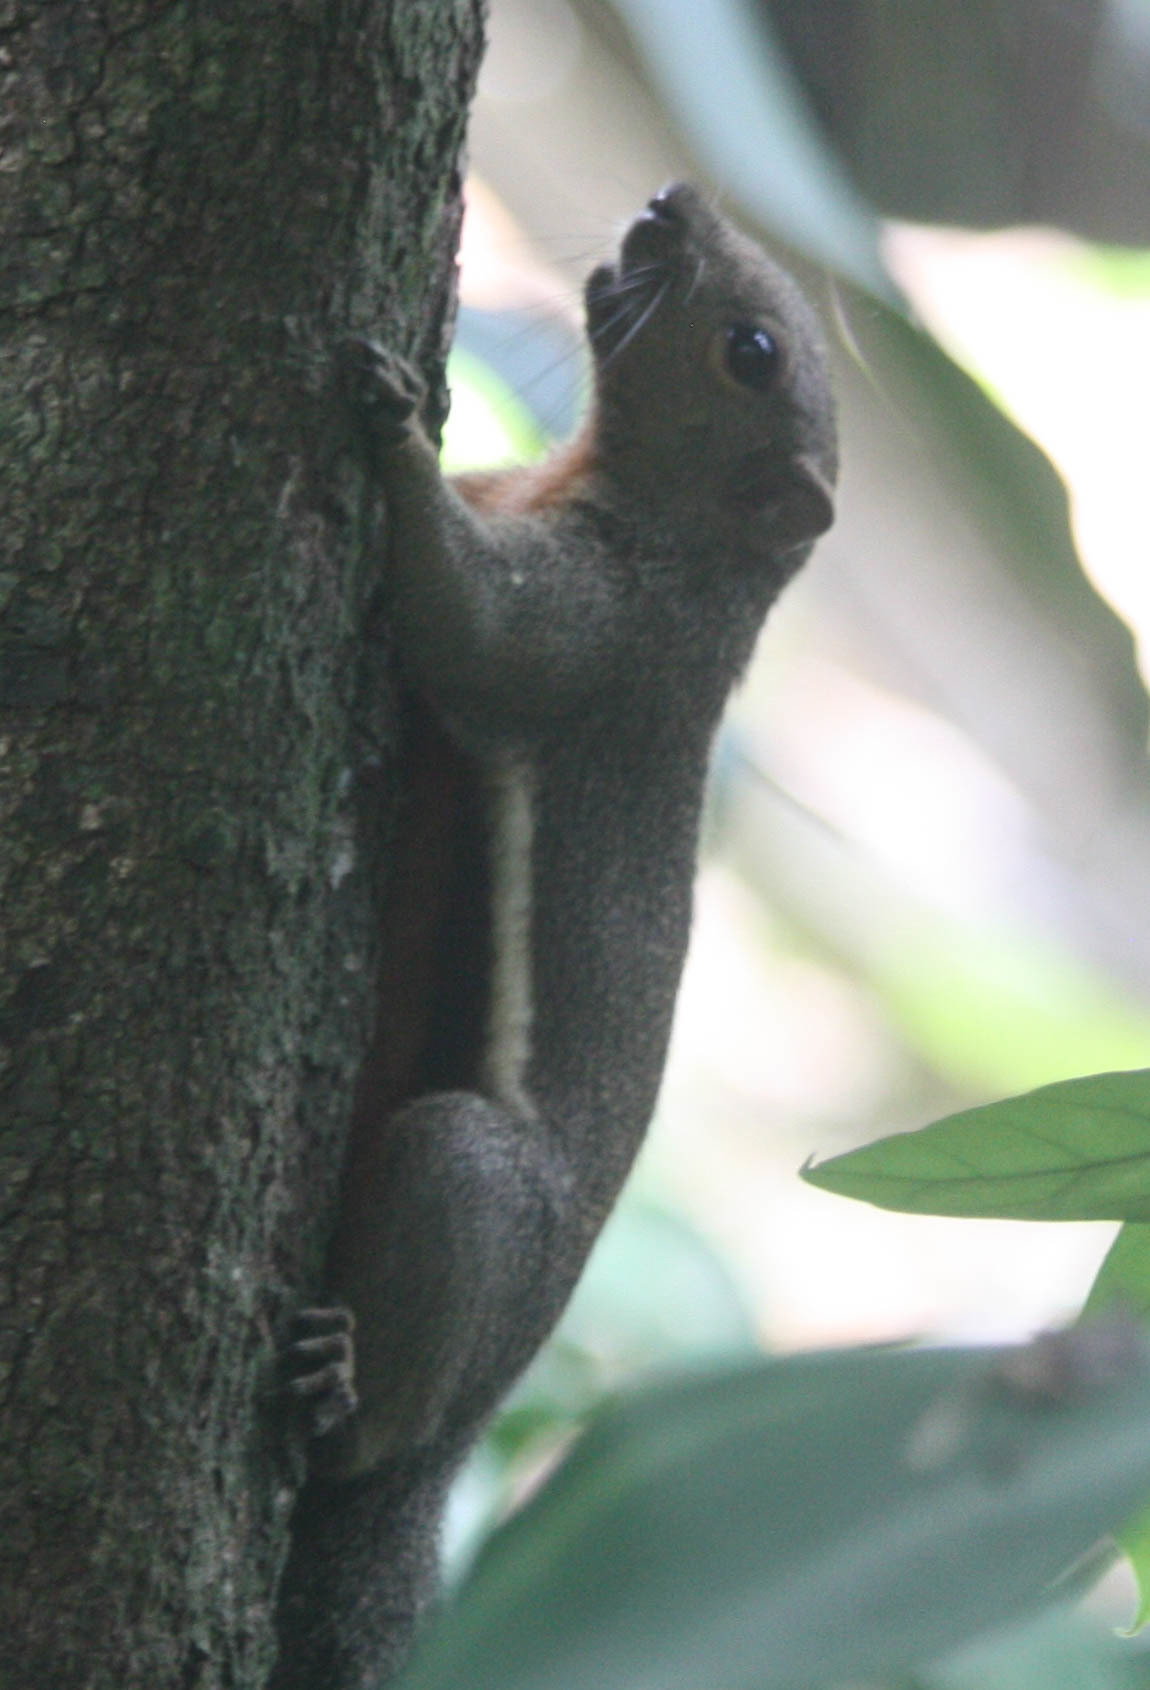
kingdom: Animalia
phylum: Chordata
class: Mammalia
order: Rodentia
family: Sciuridae
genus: Callosciurus
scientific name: Callosciurus notatus
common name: Plantain squirrel
